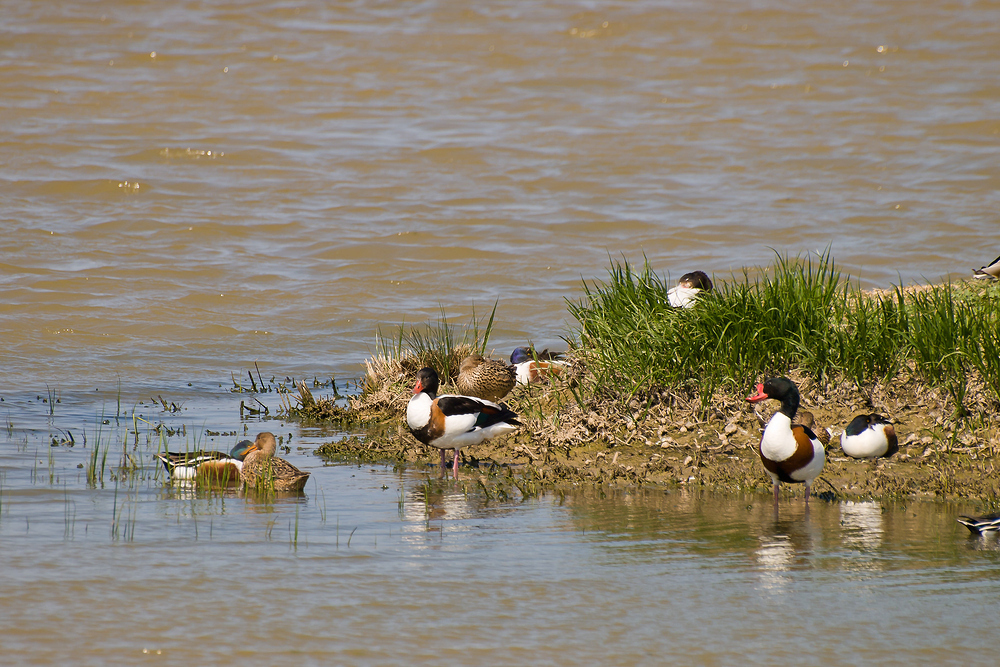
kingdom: Animalia
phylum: Chordata
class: Aves
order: Anseriformes
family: Anatidae
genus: Tadorna
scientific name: Tadorna tadorna
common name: Common shelduck
